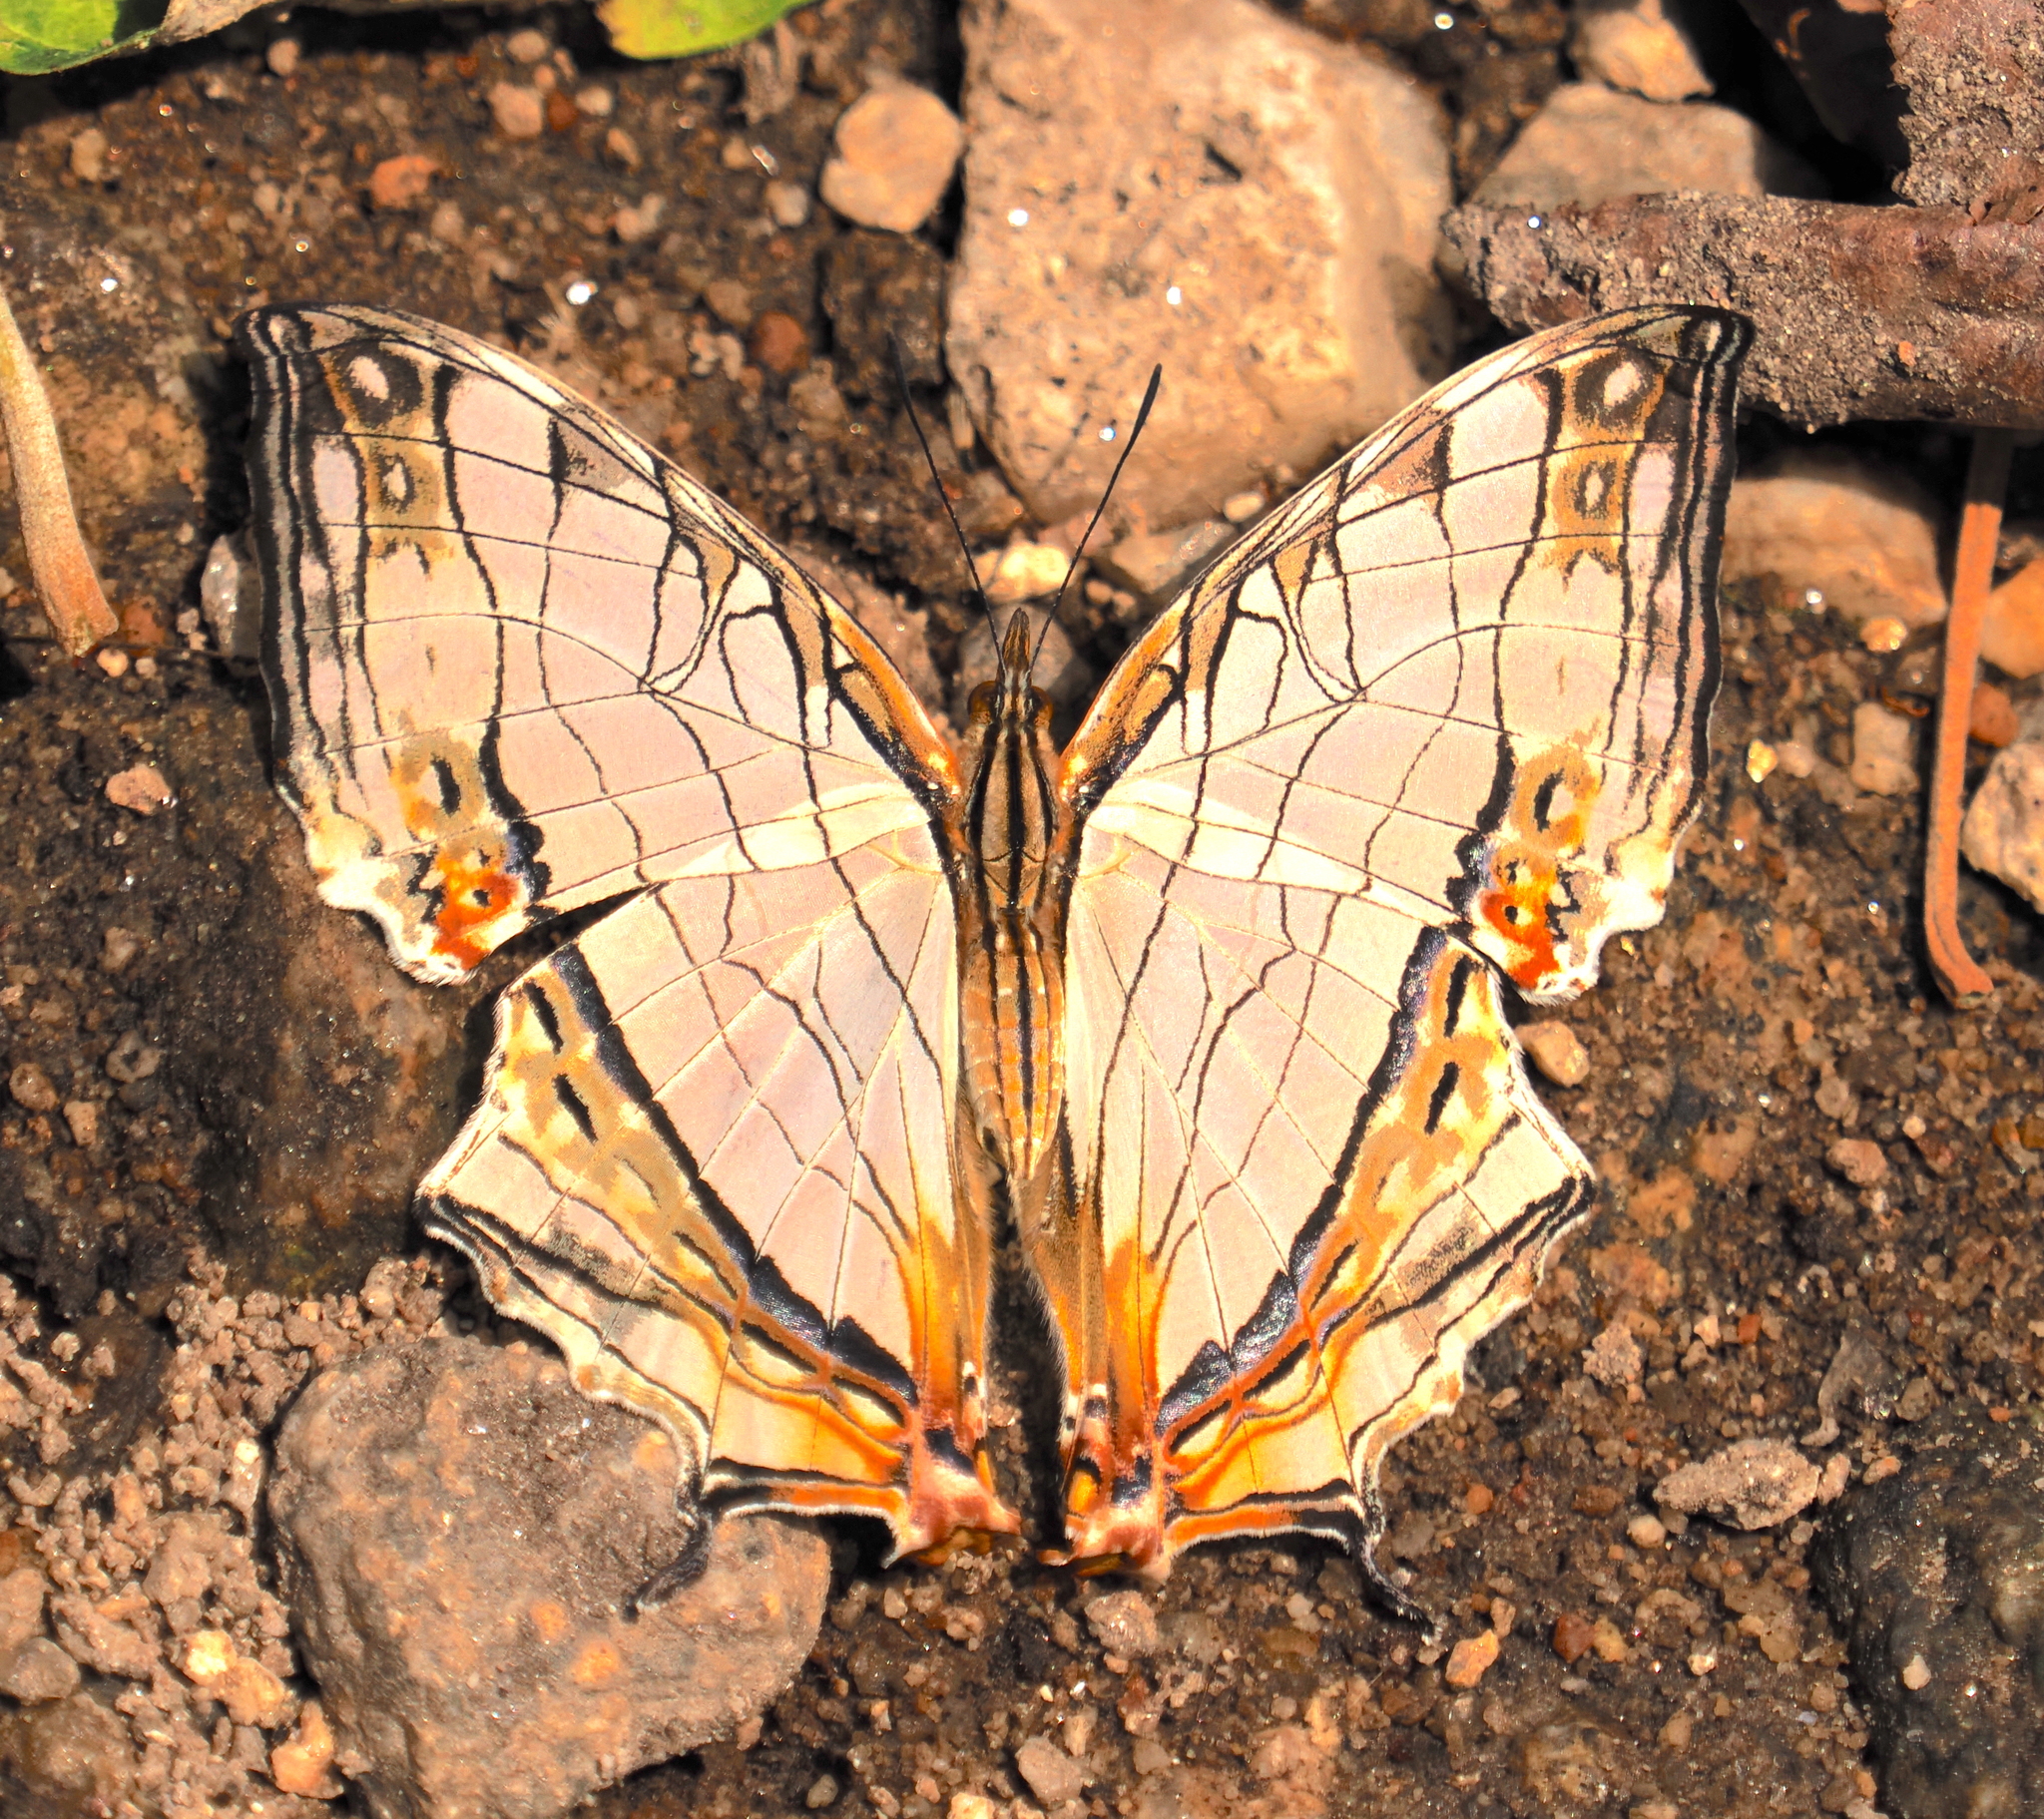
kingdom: Animalia
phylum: Arthropoda
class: Insecta
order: Lepidoptera
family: Nymphalidae
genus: Cyrestis
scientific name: Cyrestis thyodamas
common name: Common mapwing
